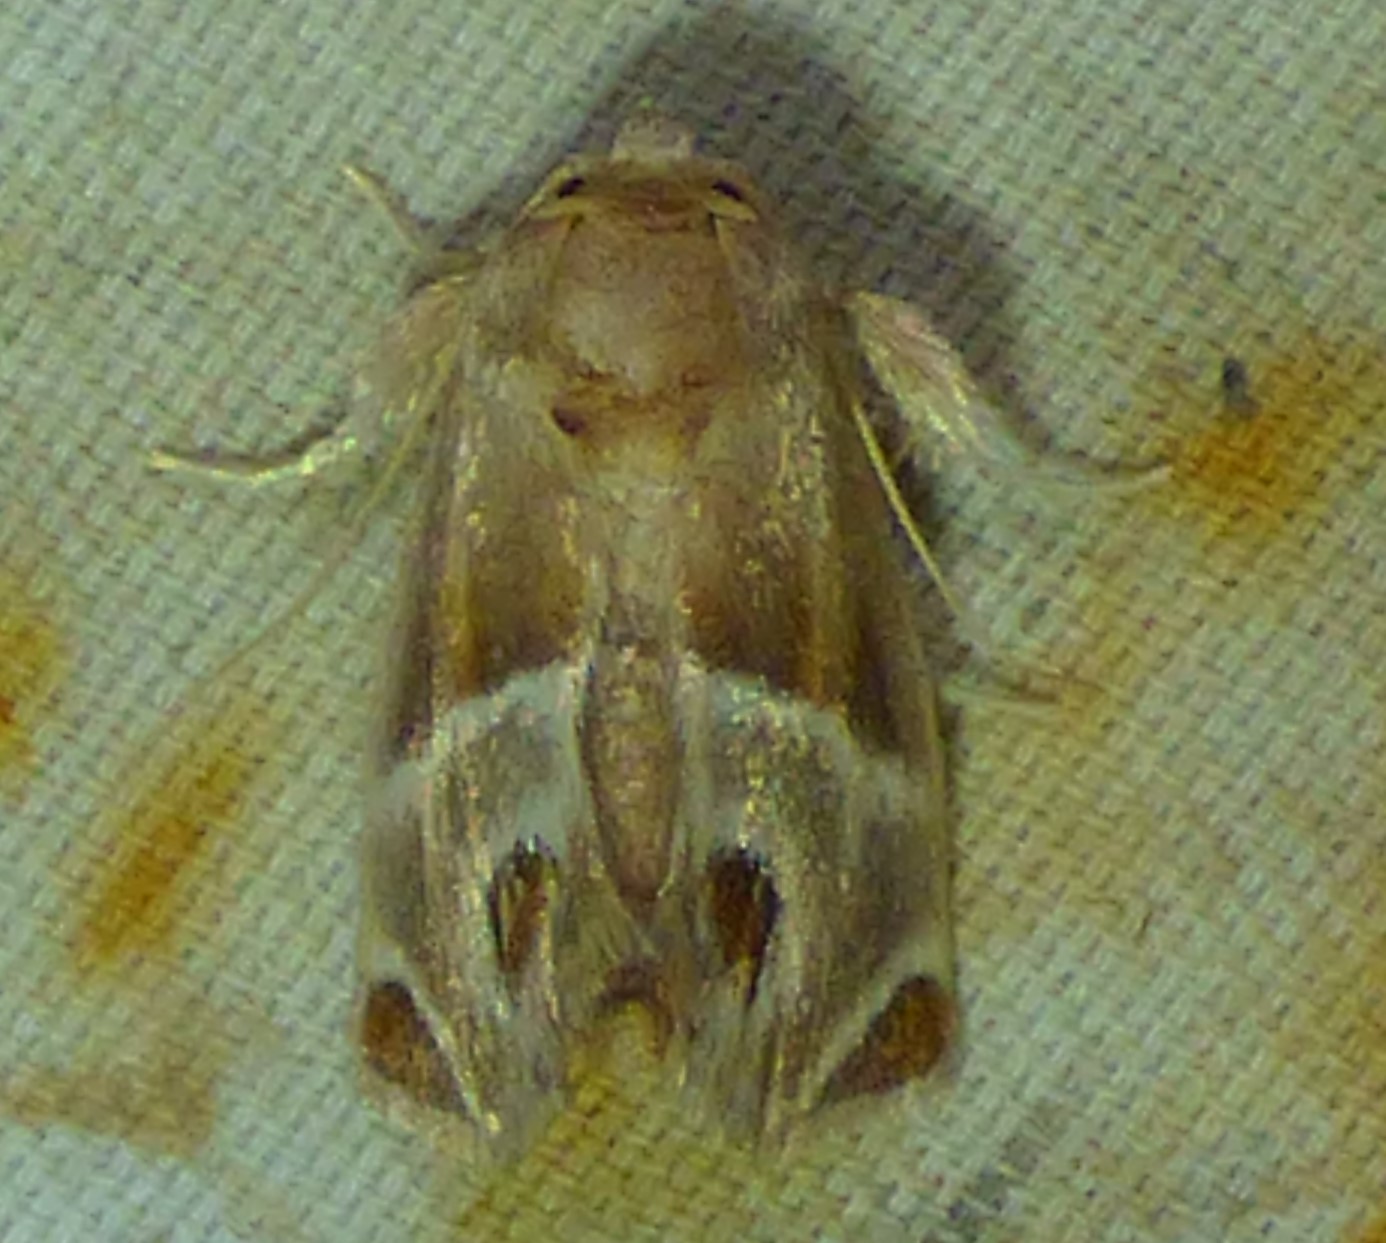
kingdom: Animalia
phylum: Arthropoda
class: Insecta
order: Lepidoptera
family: Limacodidae
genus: Apoda
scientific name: Apoda biguttata
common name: Shagreened slug moth
